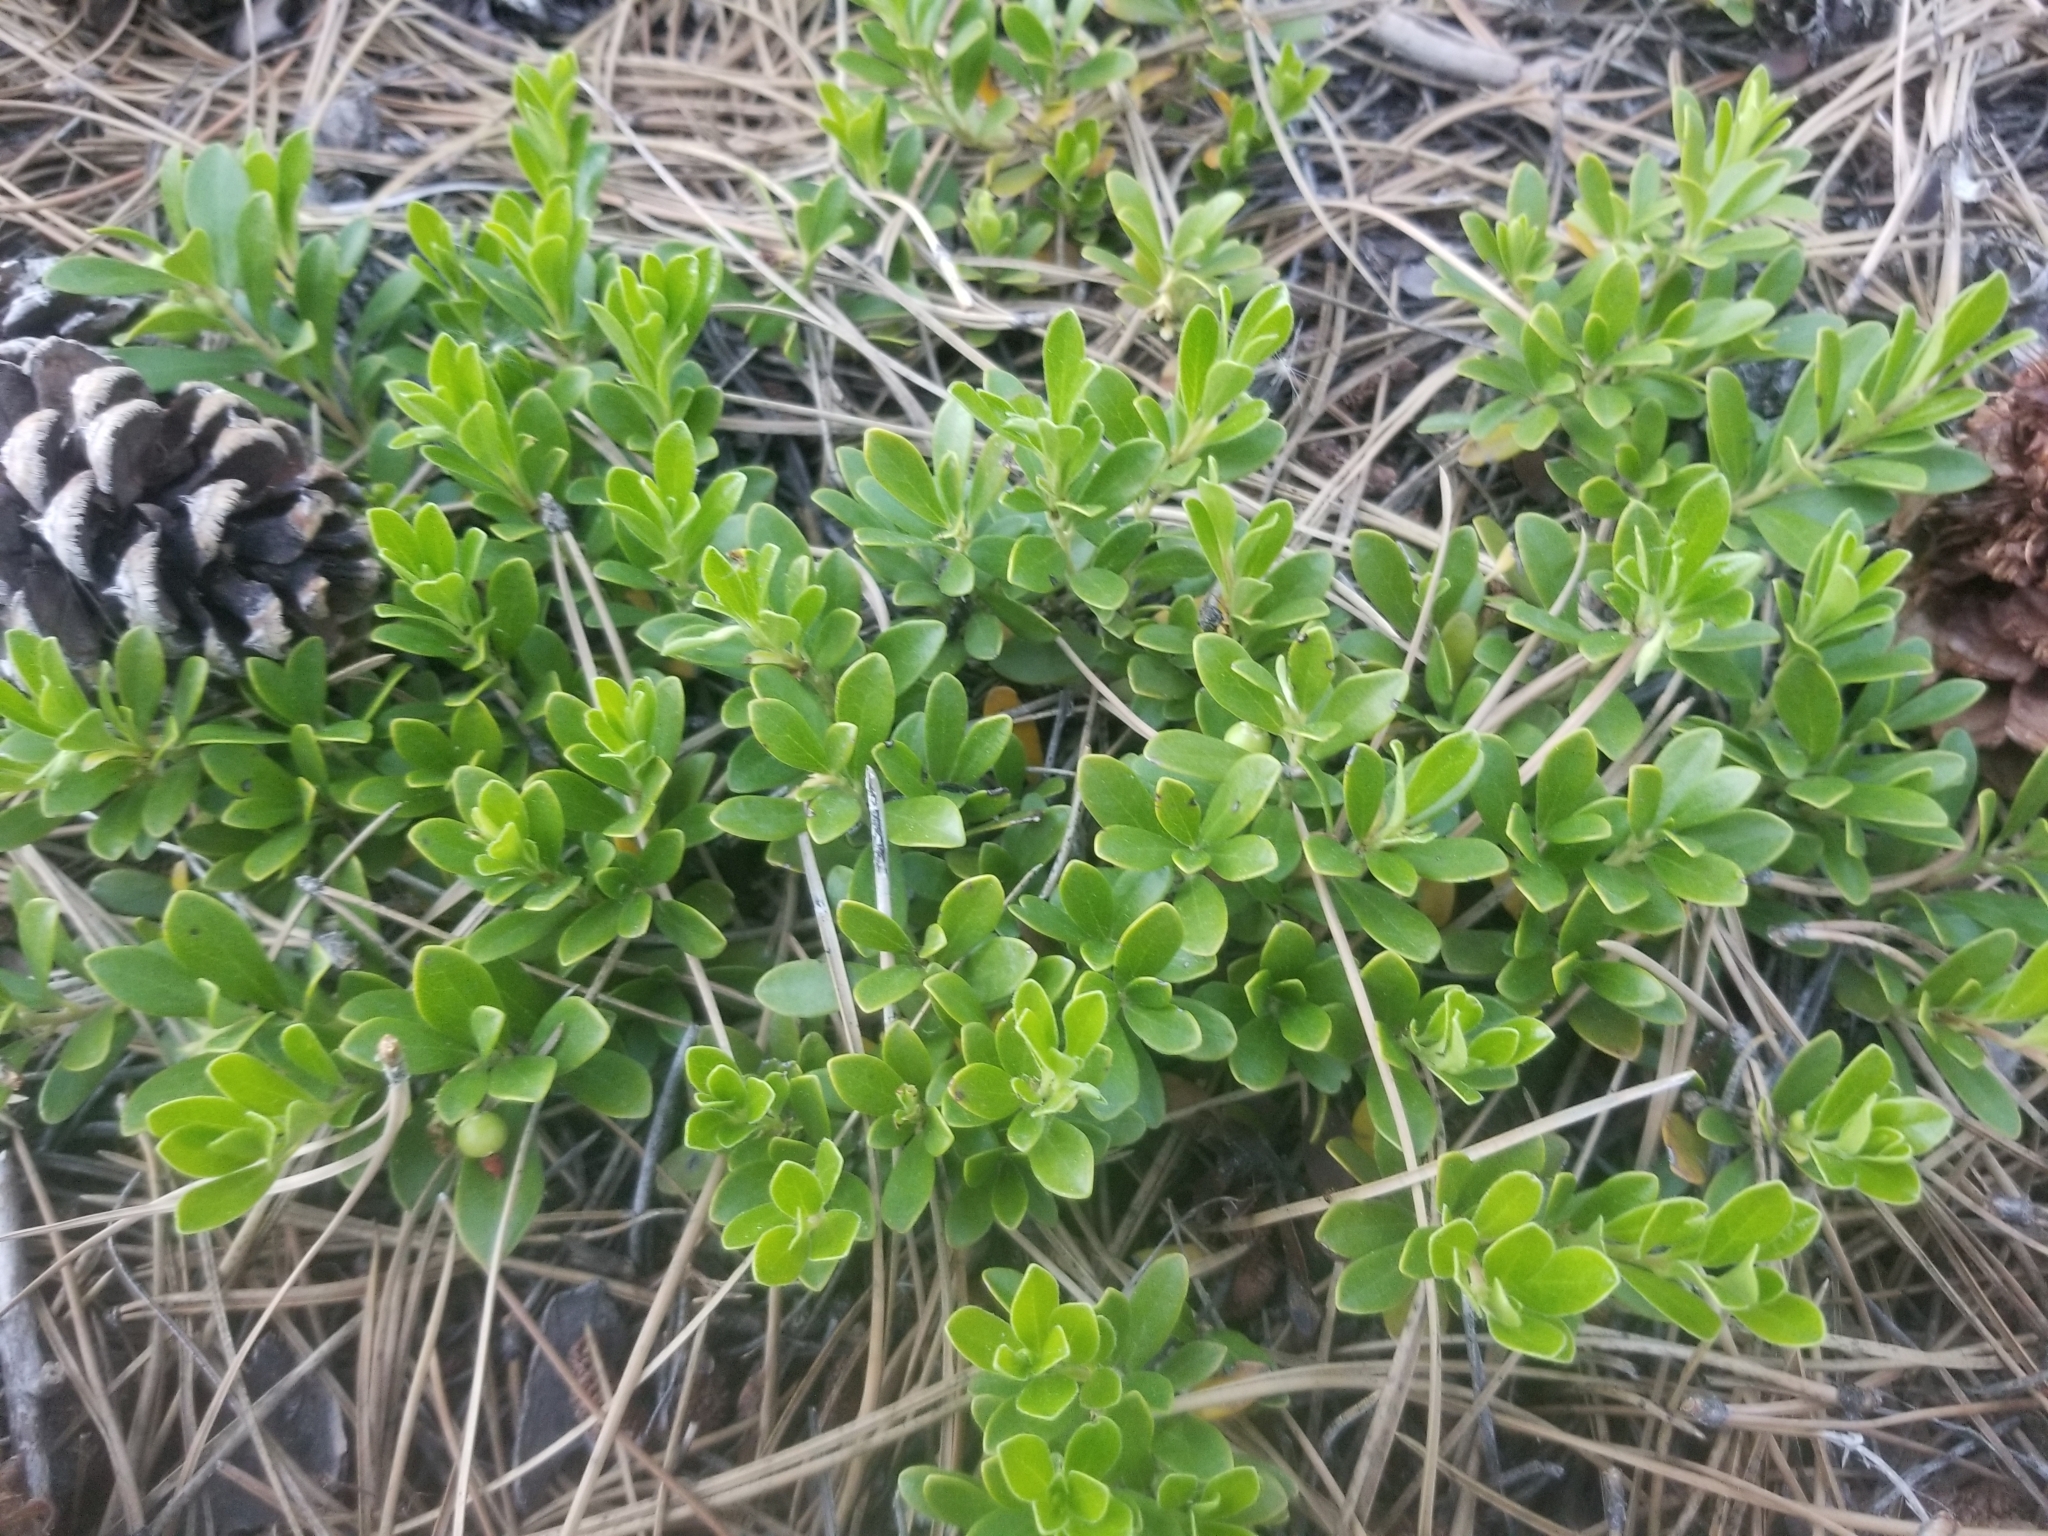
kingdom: Plantae
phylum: Tracheophyta
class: Magnoliopsida
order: Ericales
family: Ericaceae
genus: Arctostaphylos
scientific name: Arctostaphylos uva-ursi
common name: Bearberry
